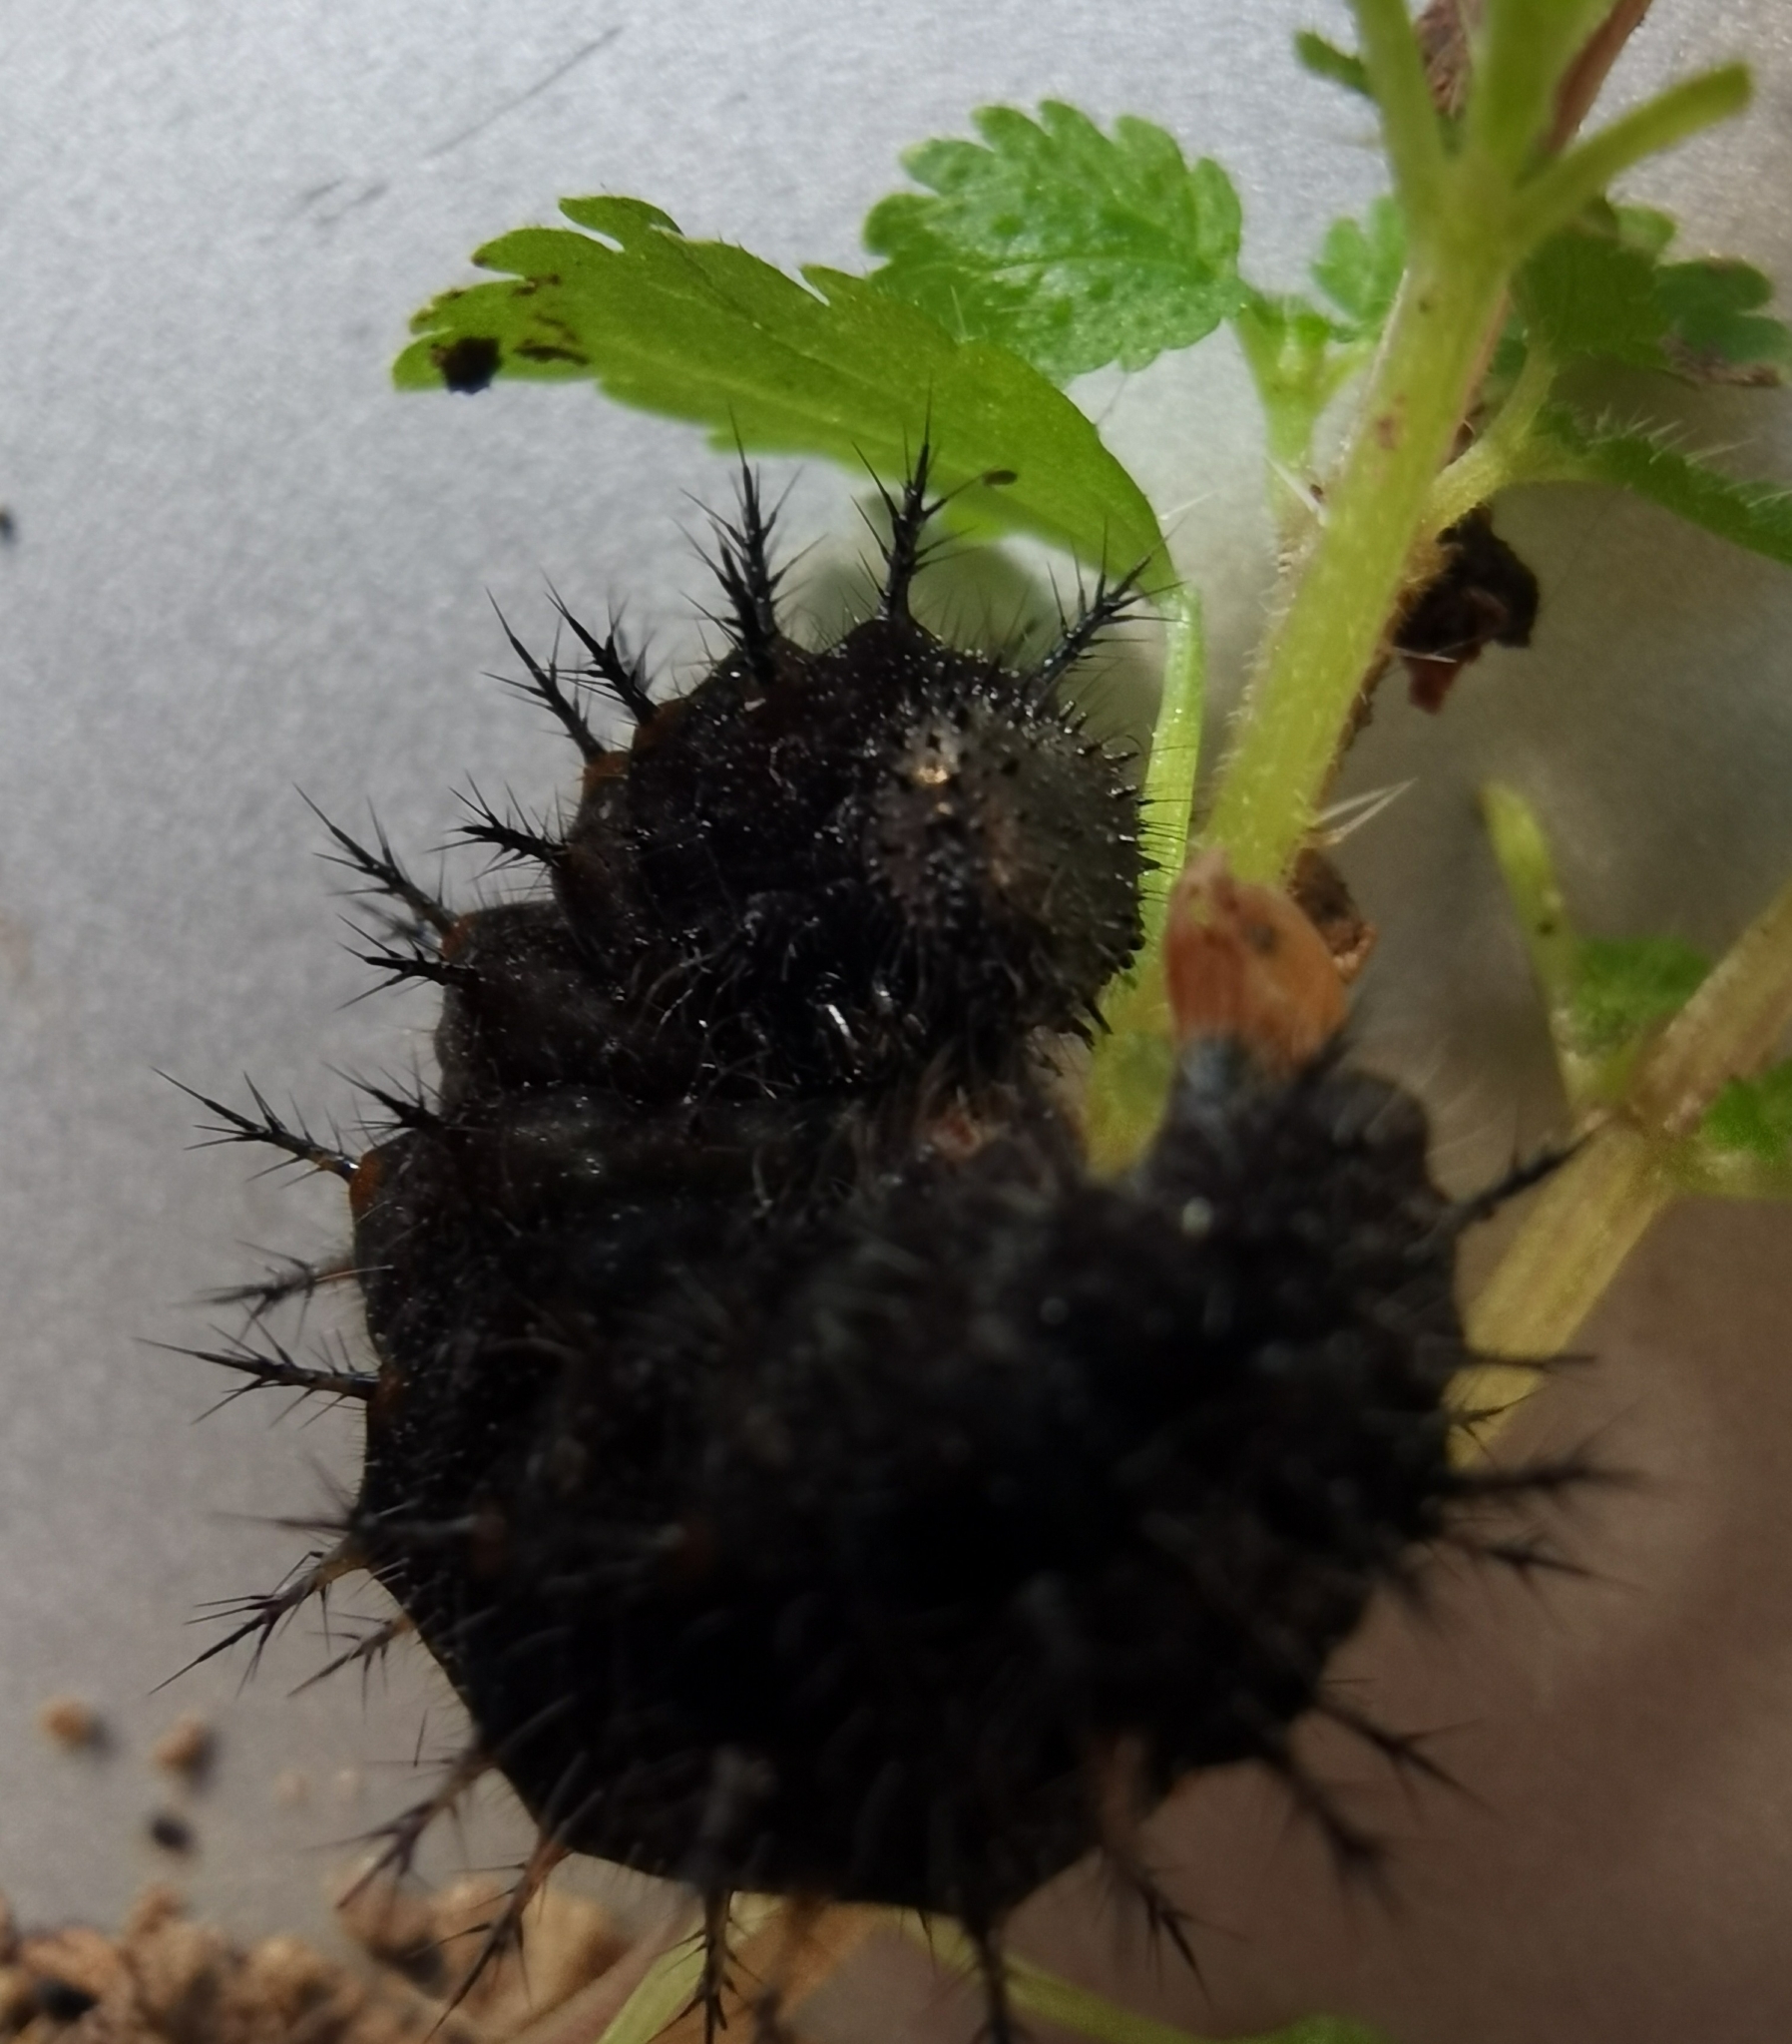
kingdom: Animalia
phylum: Arthropoda
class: Insecta
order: Lepidoptera
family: Nymphalidae
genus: Vanessa
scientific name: Vanessa atalanta
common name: Red admiral
